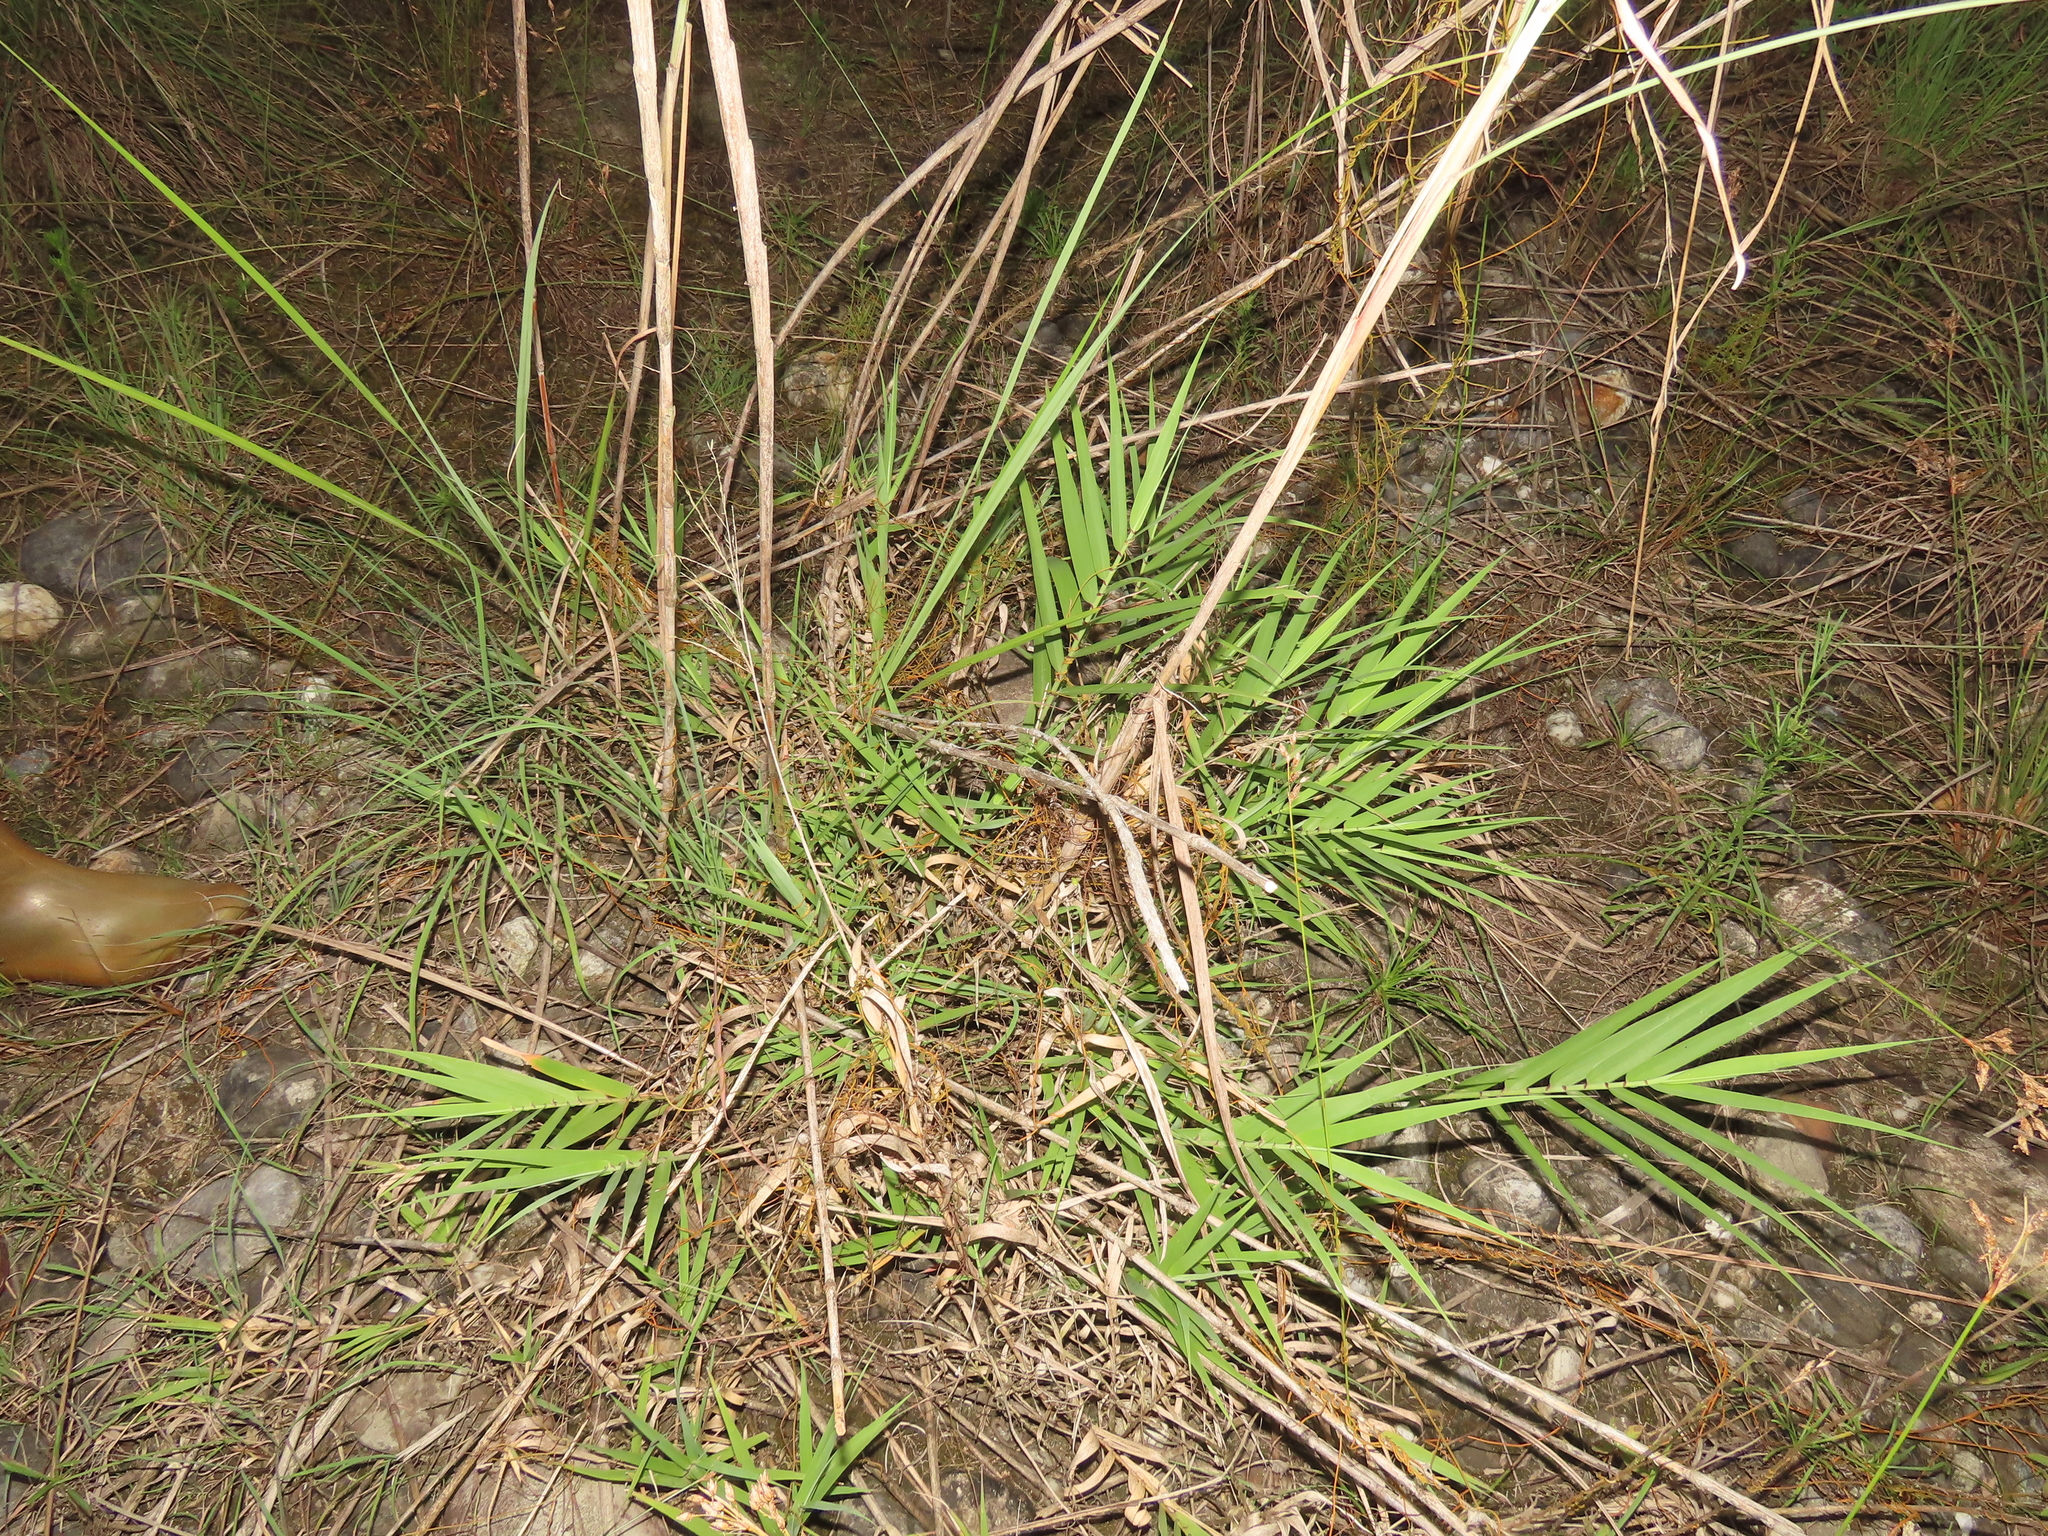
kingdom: Plantae
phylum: Tracheophyta
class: Liliopsida
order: Poales
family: Poaceae
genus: Arundo
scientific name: Arundo formosana
